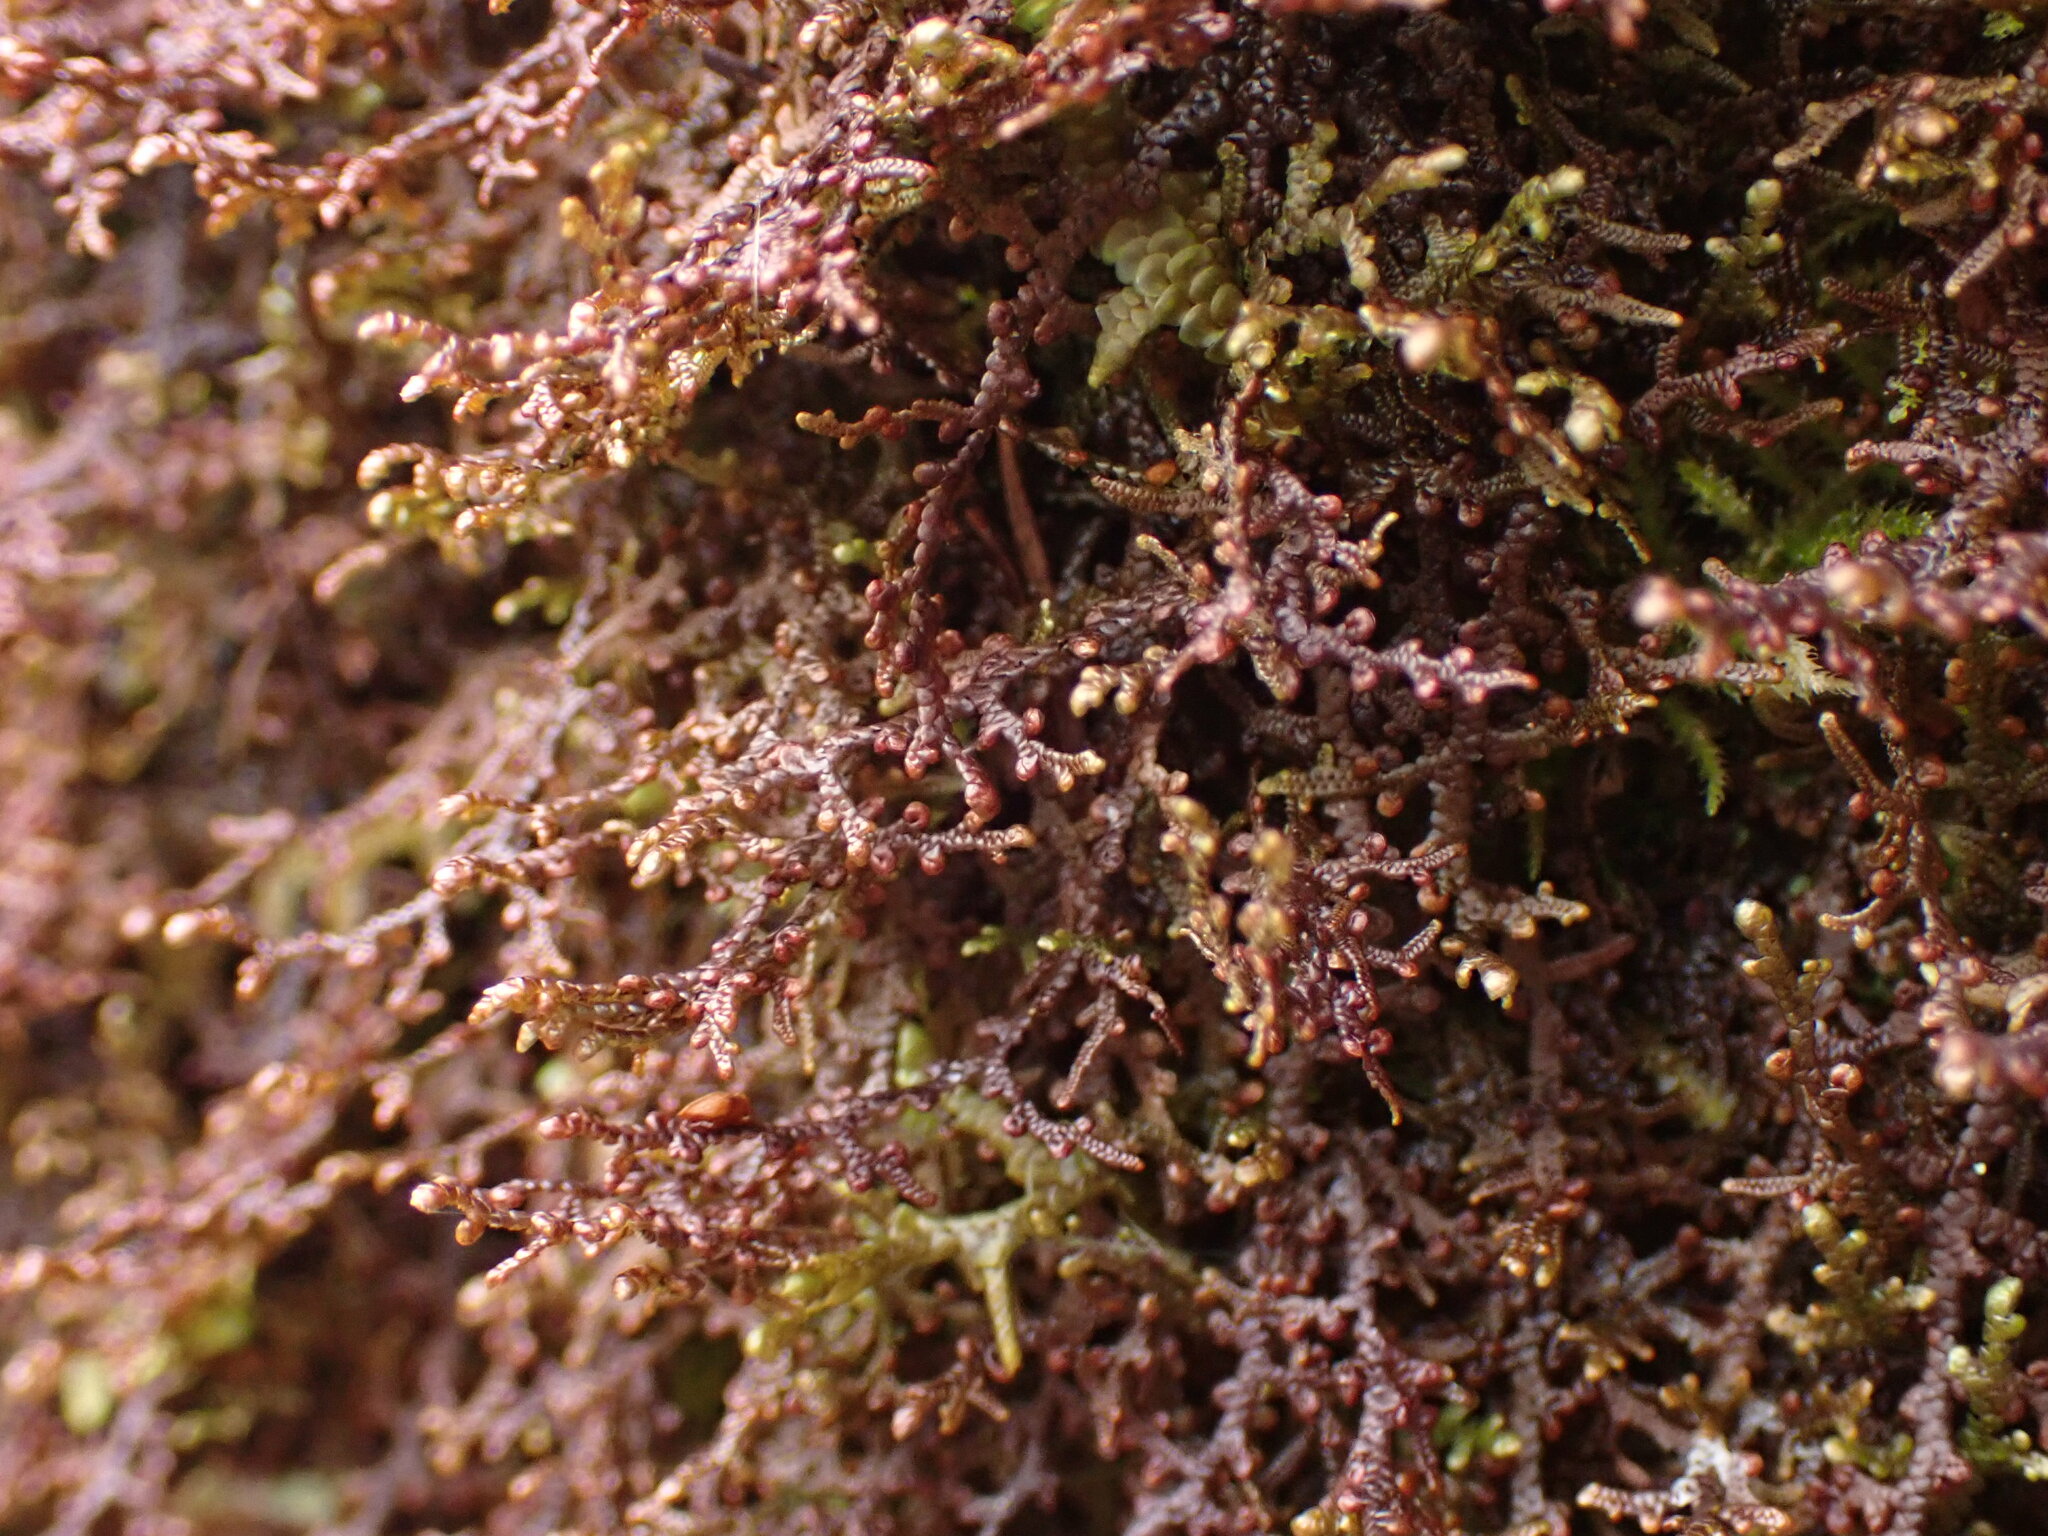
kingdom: Plantae
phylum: Marchantiophyta
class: Jungermanniopsida
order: Porellales
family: Frullaniaceae
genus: Frullania
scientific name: Frullania nisquallensis
